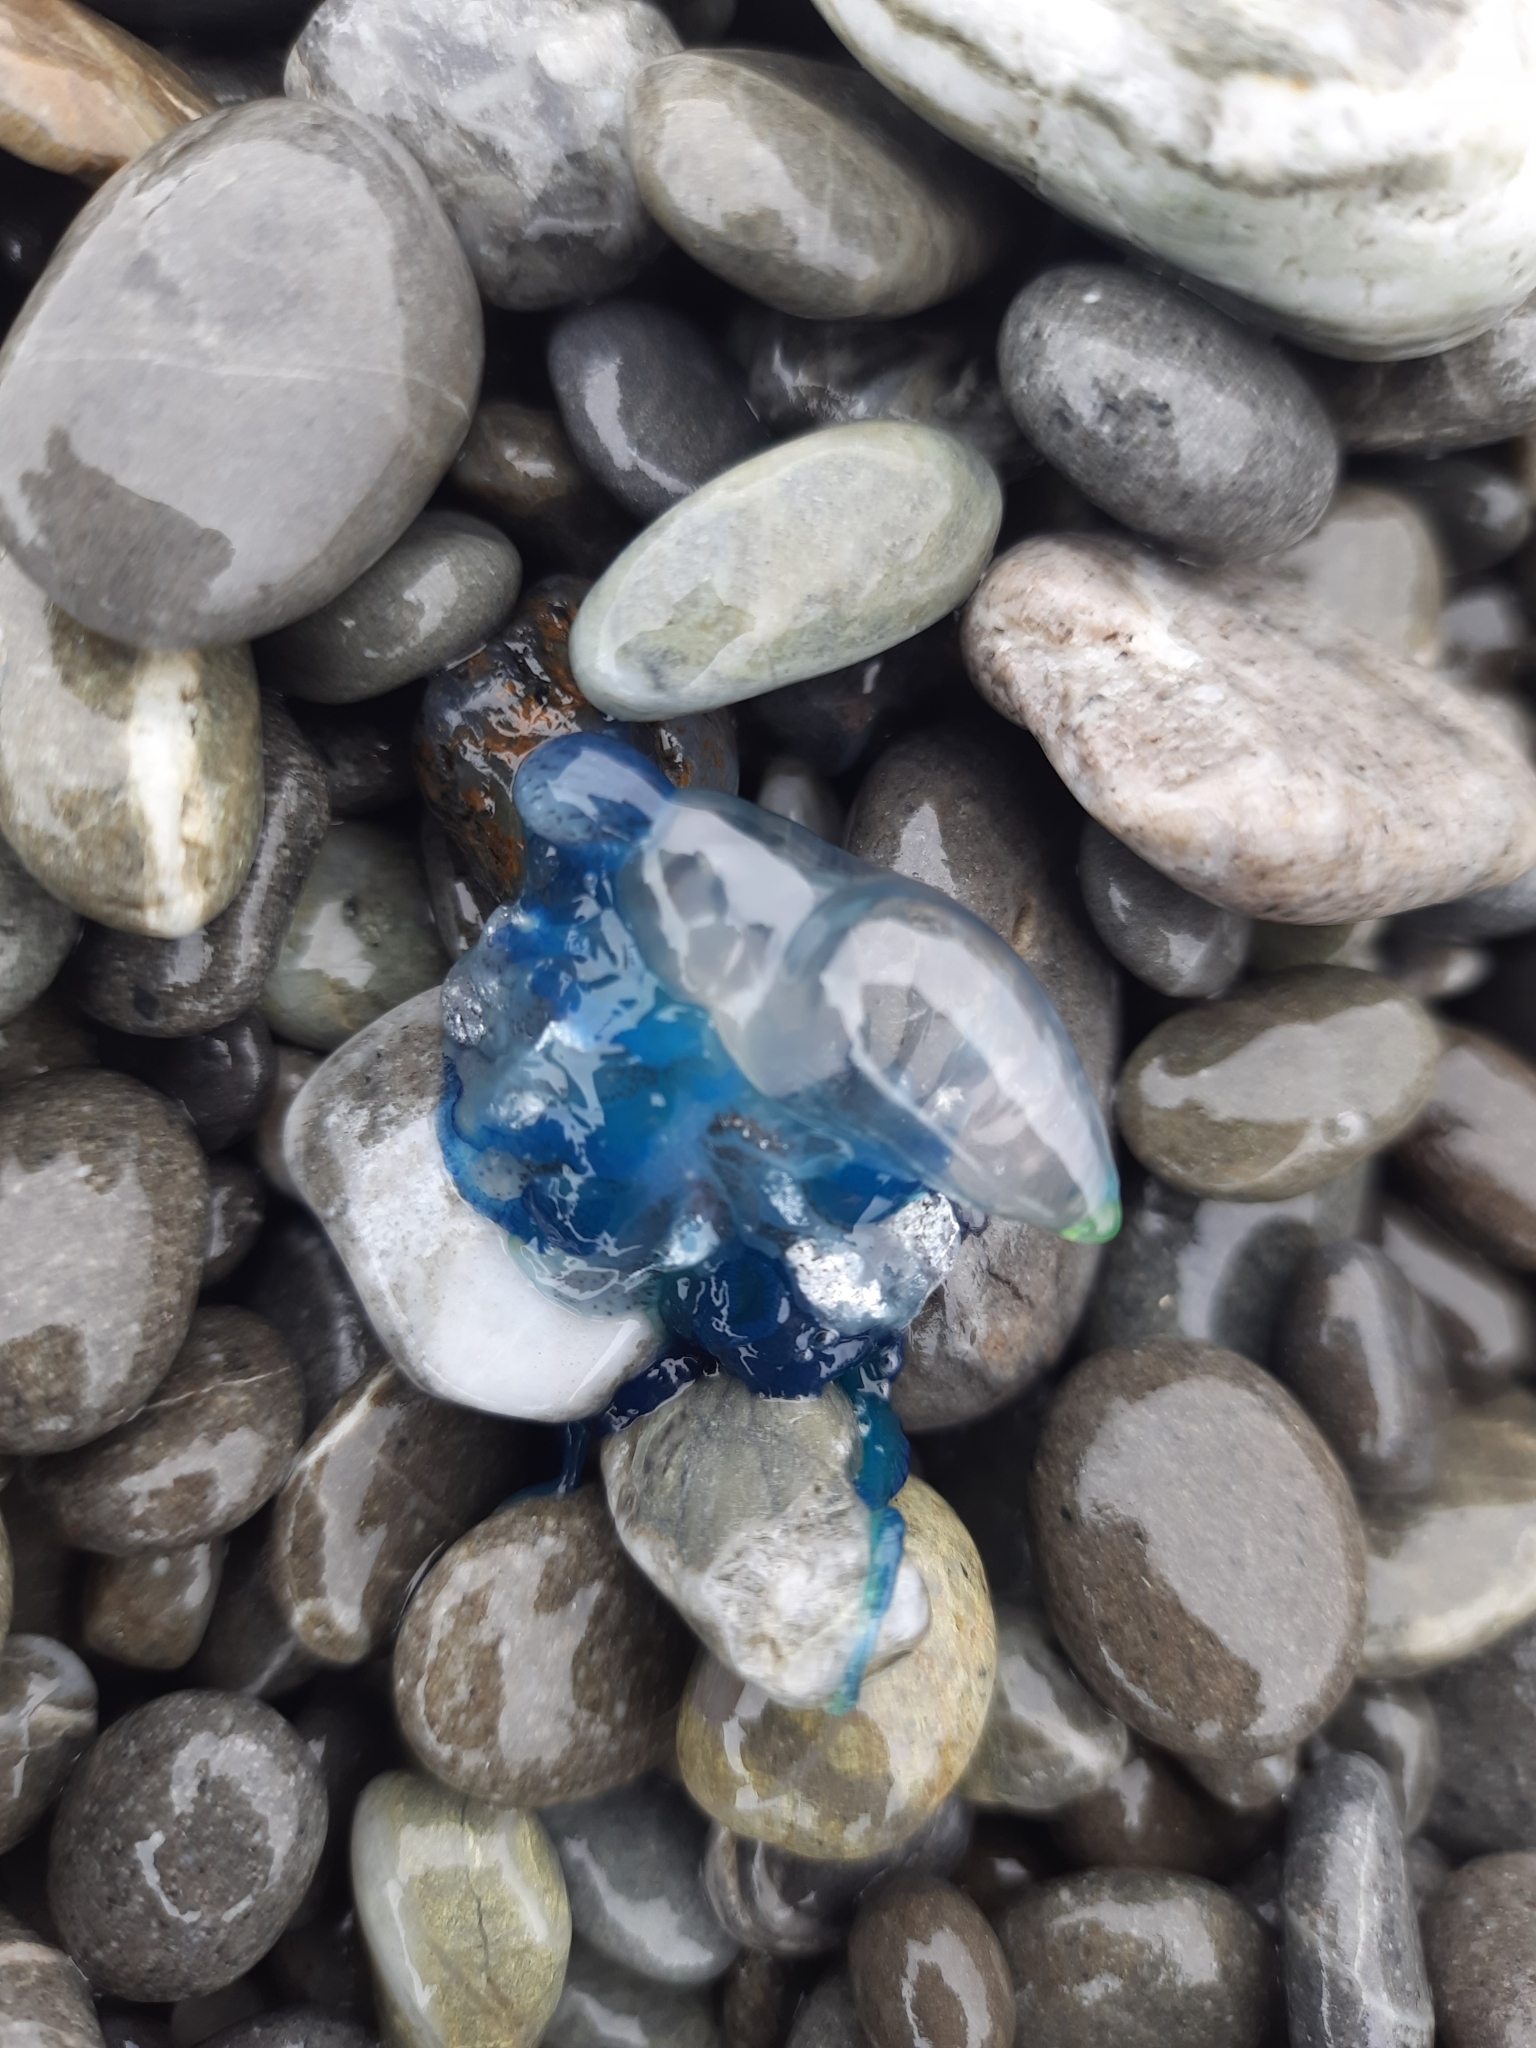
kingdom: Animalia
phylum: Cnidaria
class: Hydrozoa
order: Siphonophorae
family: Physaliidae
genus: Physalia
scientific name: Physalia physalis
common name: Portuguese man-of-war
